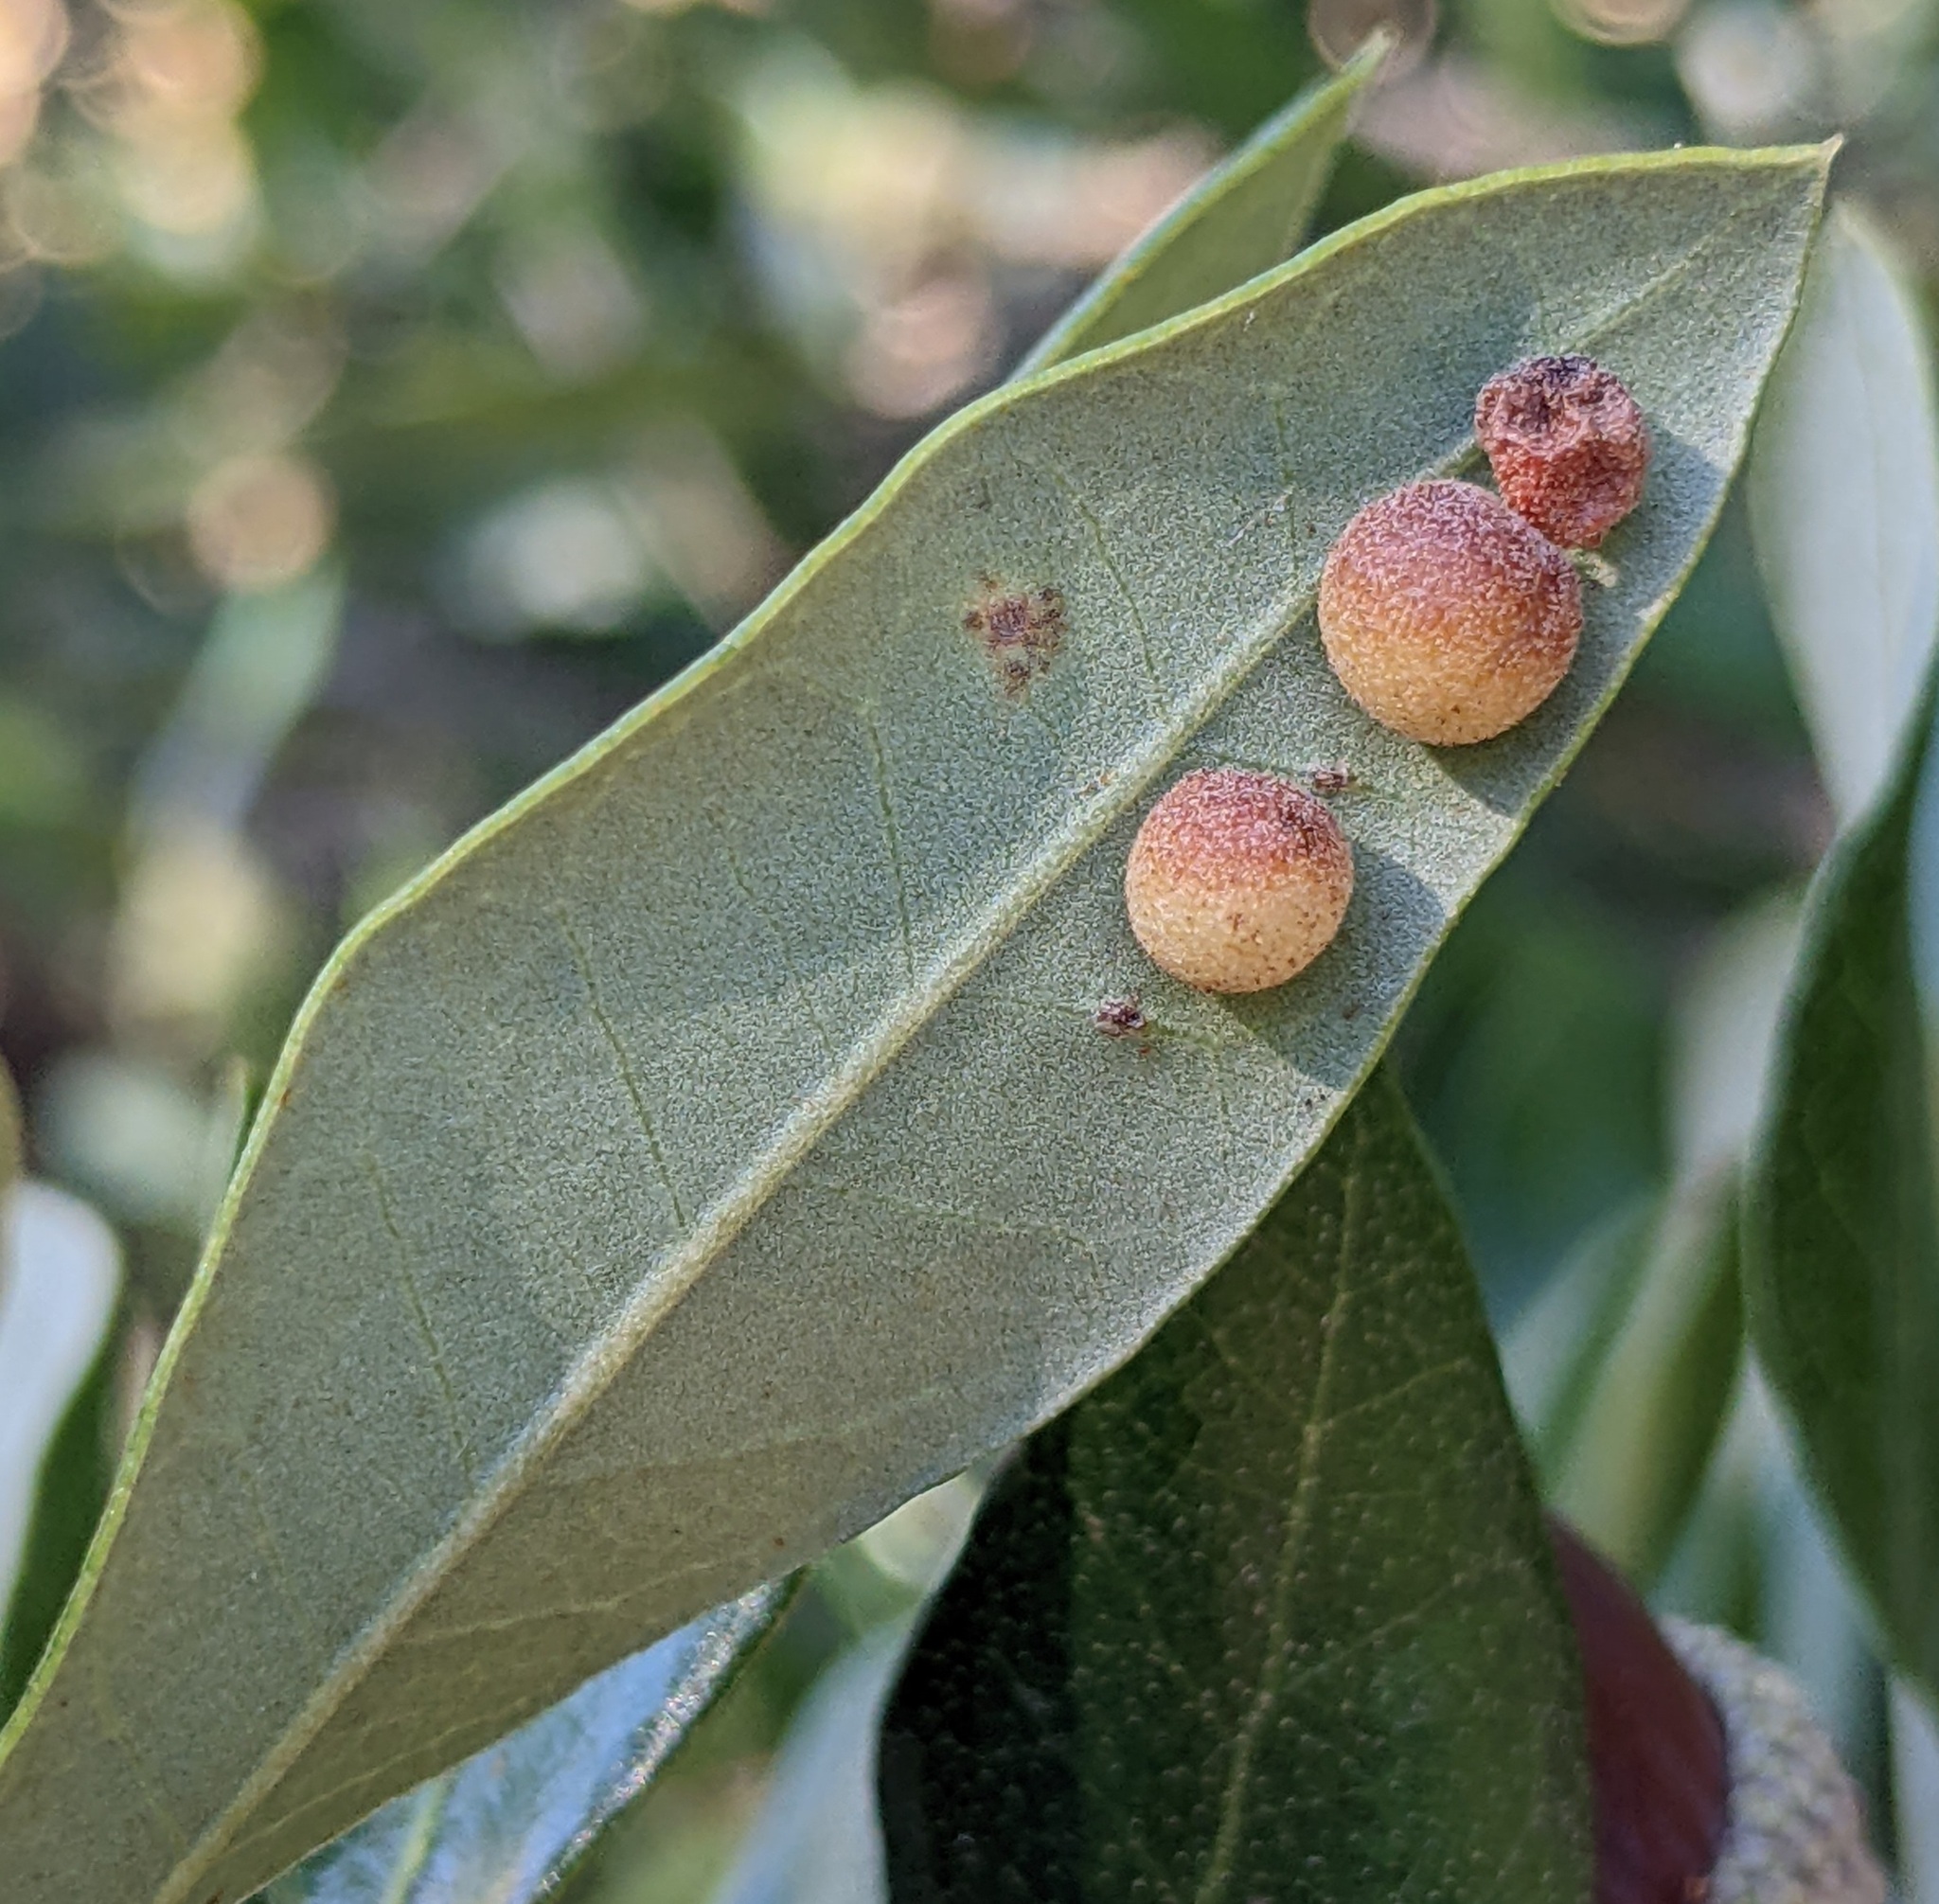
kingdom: Animalia
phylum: Arthropoda
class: Insecta
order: Hymenoptera
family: Cynipidae
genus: Belonocnema
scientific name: Belonocnema kinseyi
